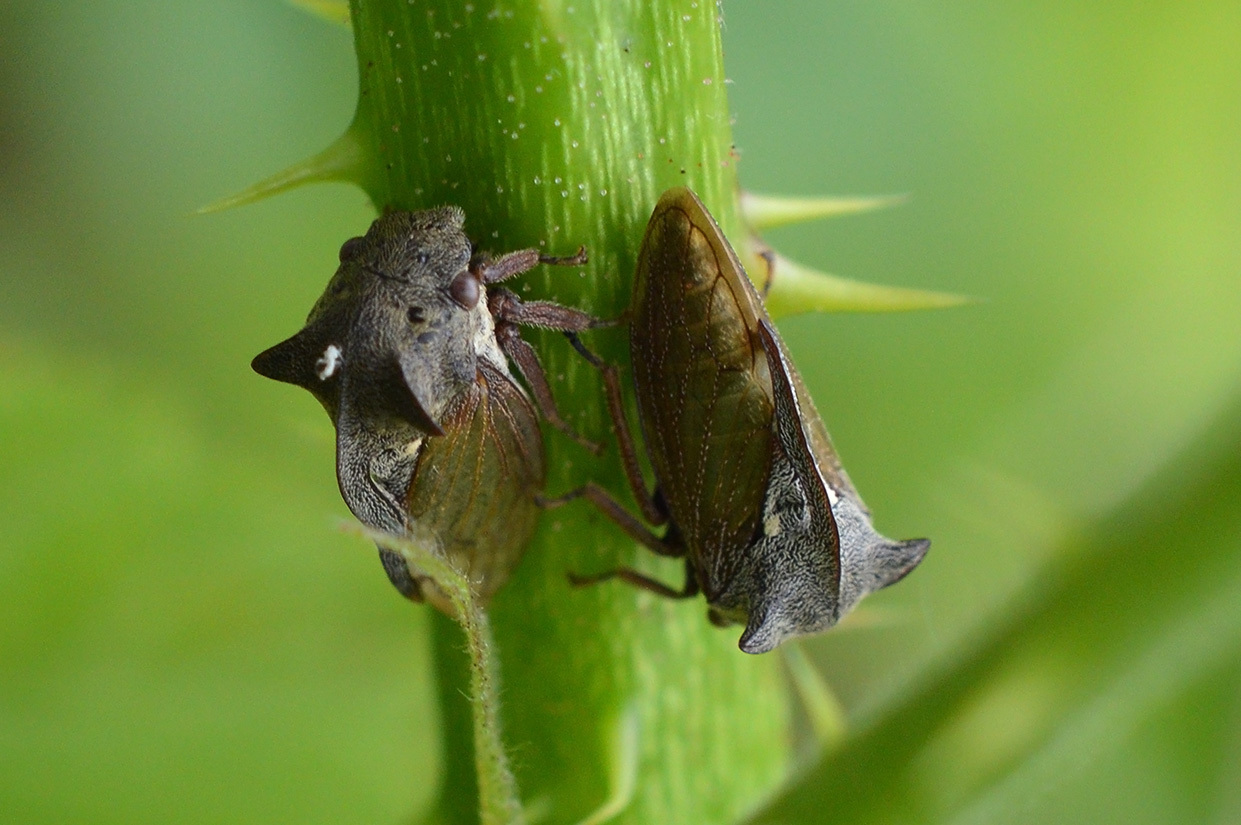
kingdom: Animalia
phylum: Arthropoda
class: Insecta
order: Hemiptera
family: Membracidae
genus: Centrotus
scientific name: Centrotus cornuta
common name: Treehopper
